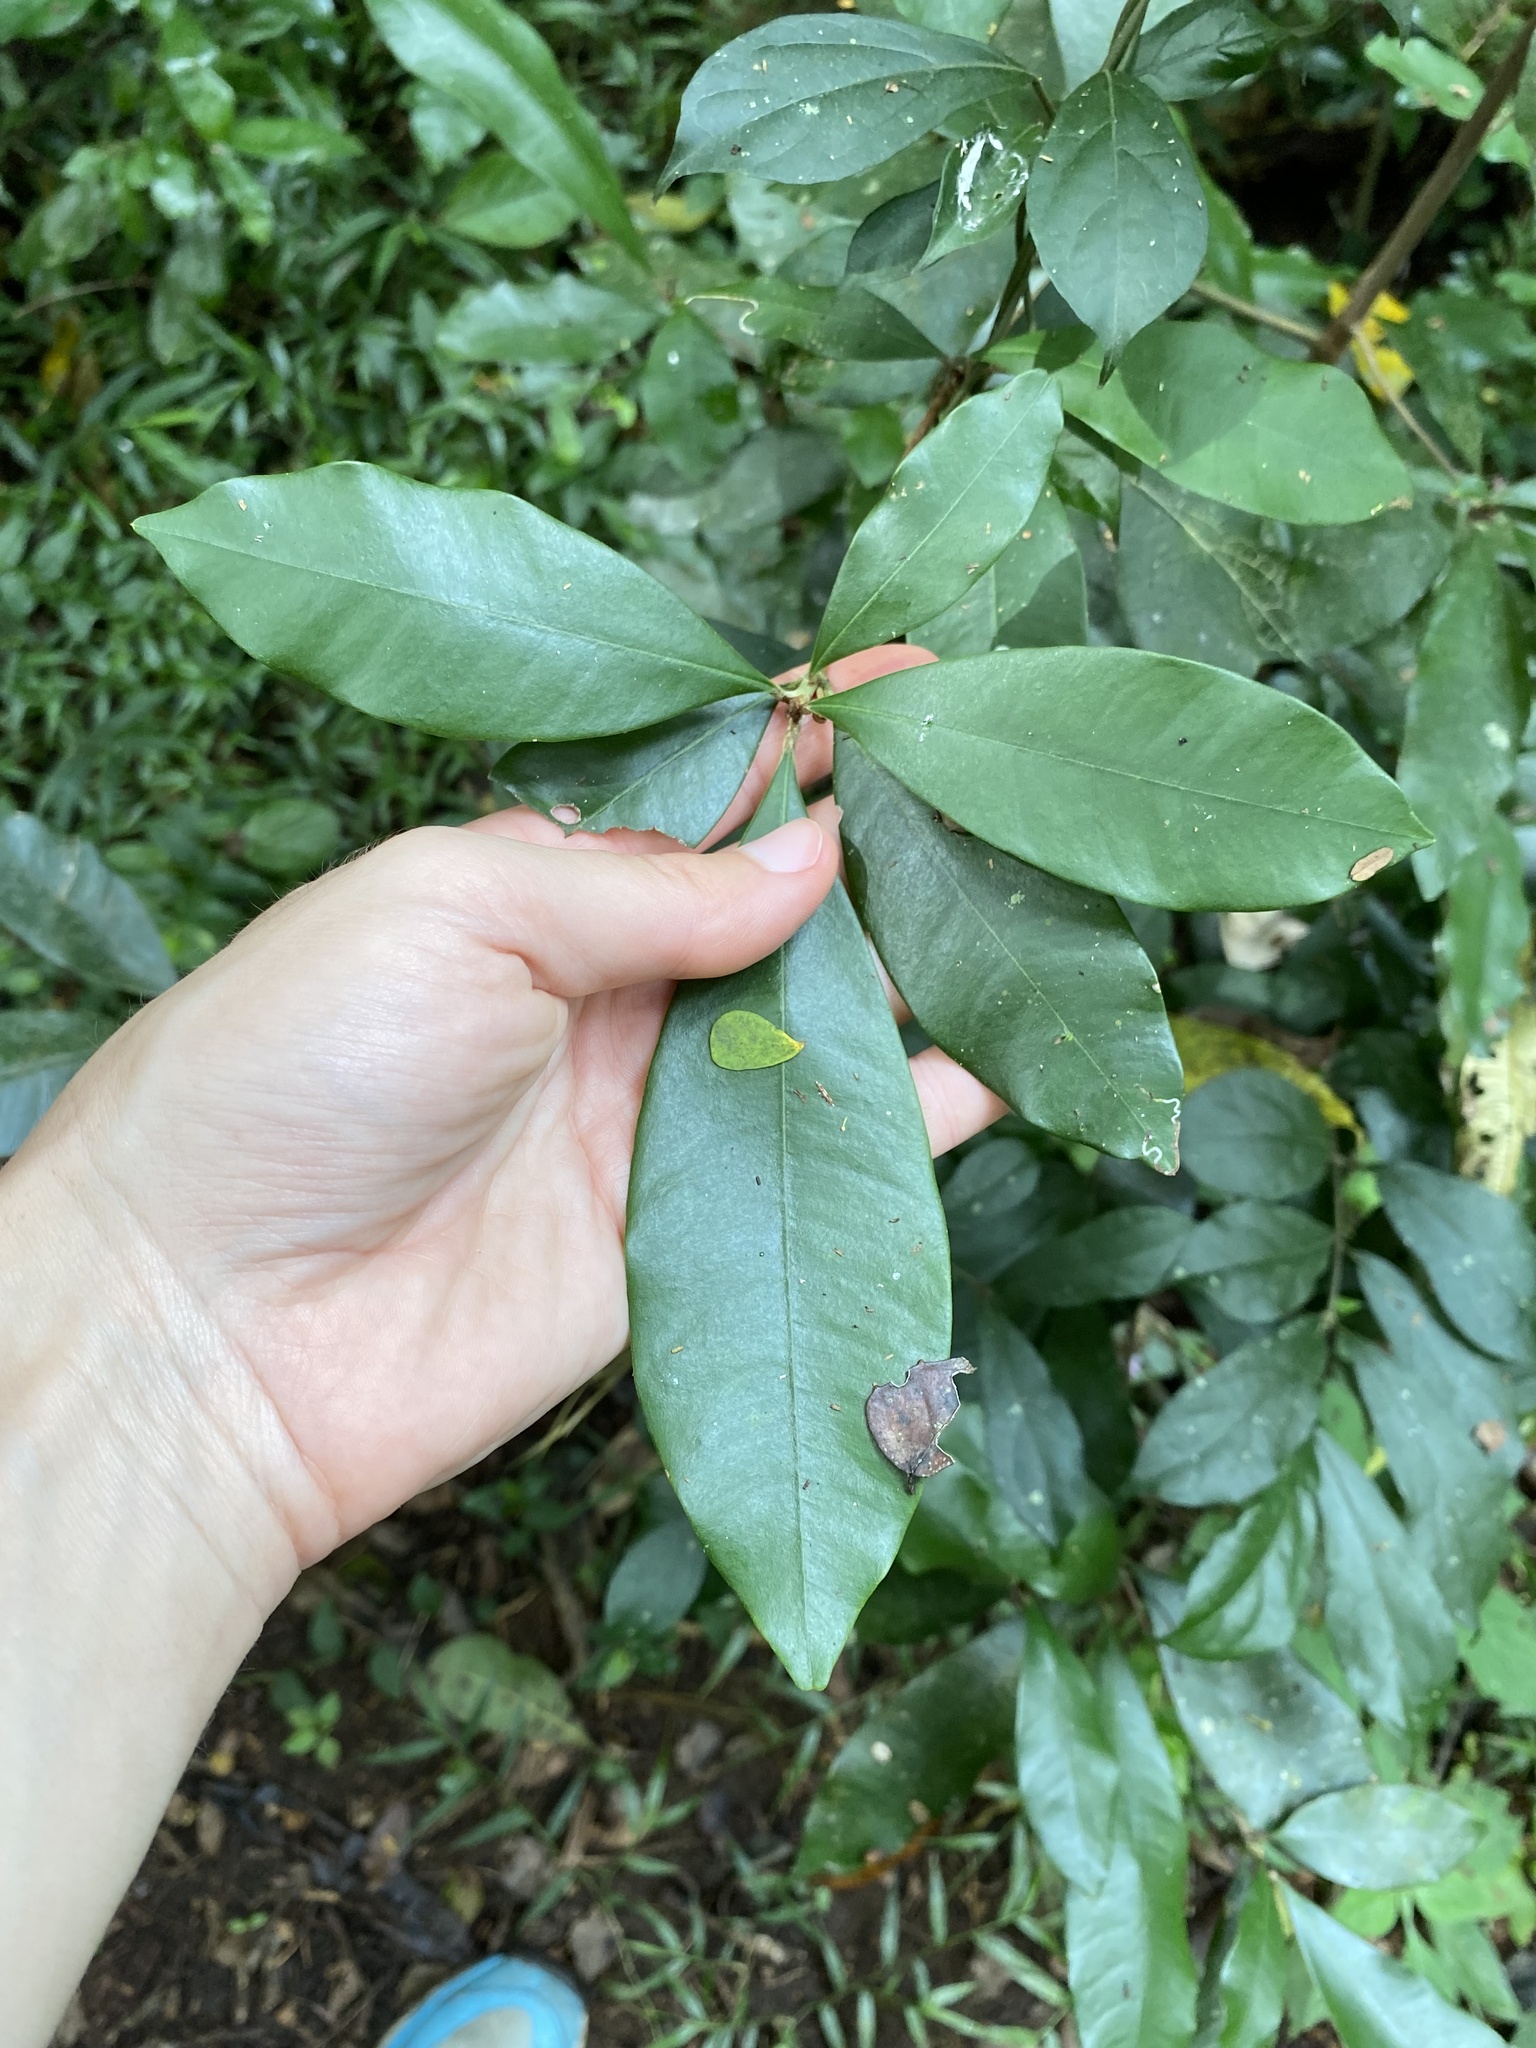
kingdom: Plantae
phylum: Tracheophyta
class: Magnoliopsida
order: Ericales
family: Sapotaceae
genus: Englerophytum
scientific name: Englerophytum natalense
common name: Silver-leaved milkplum
